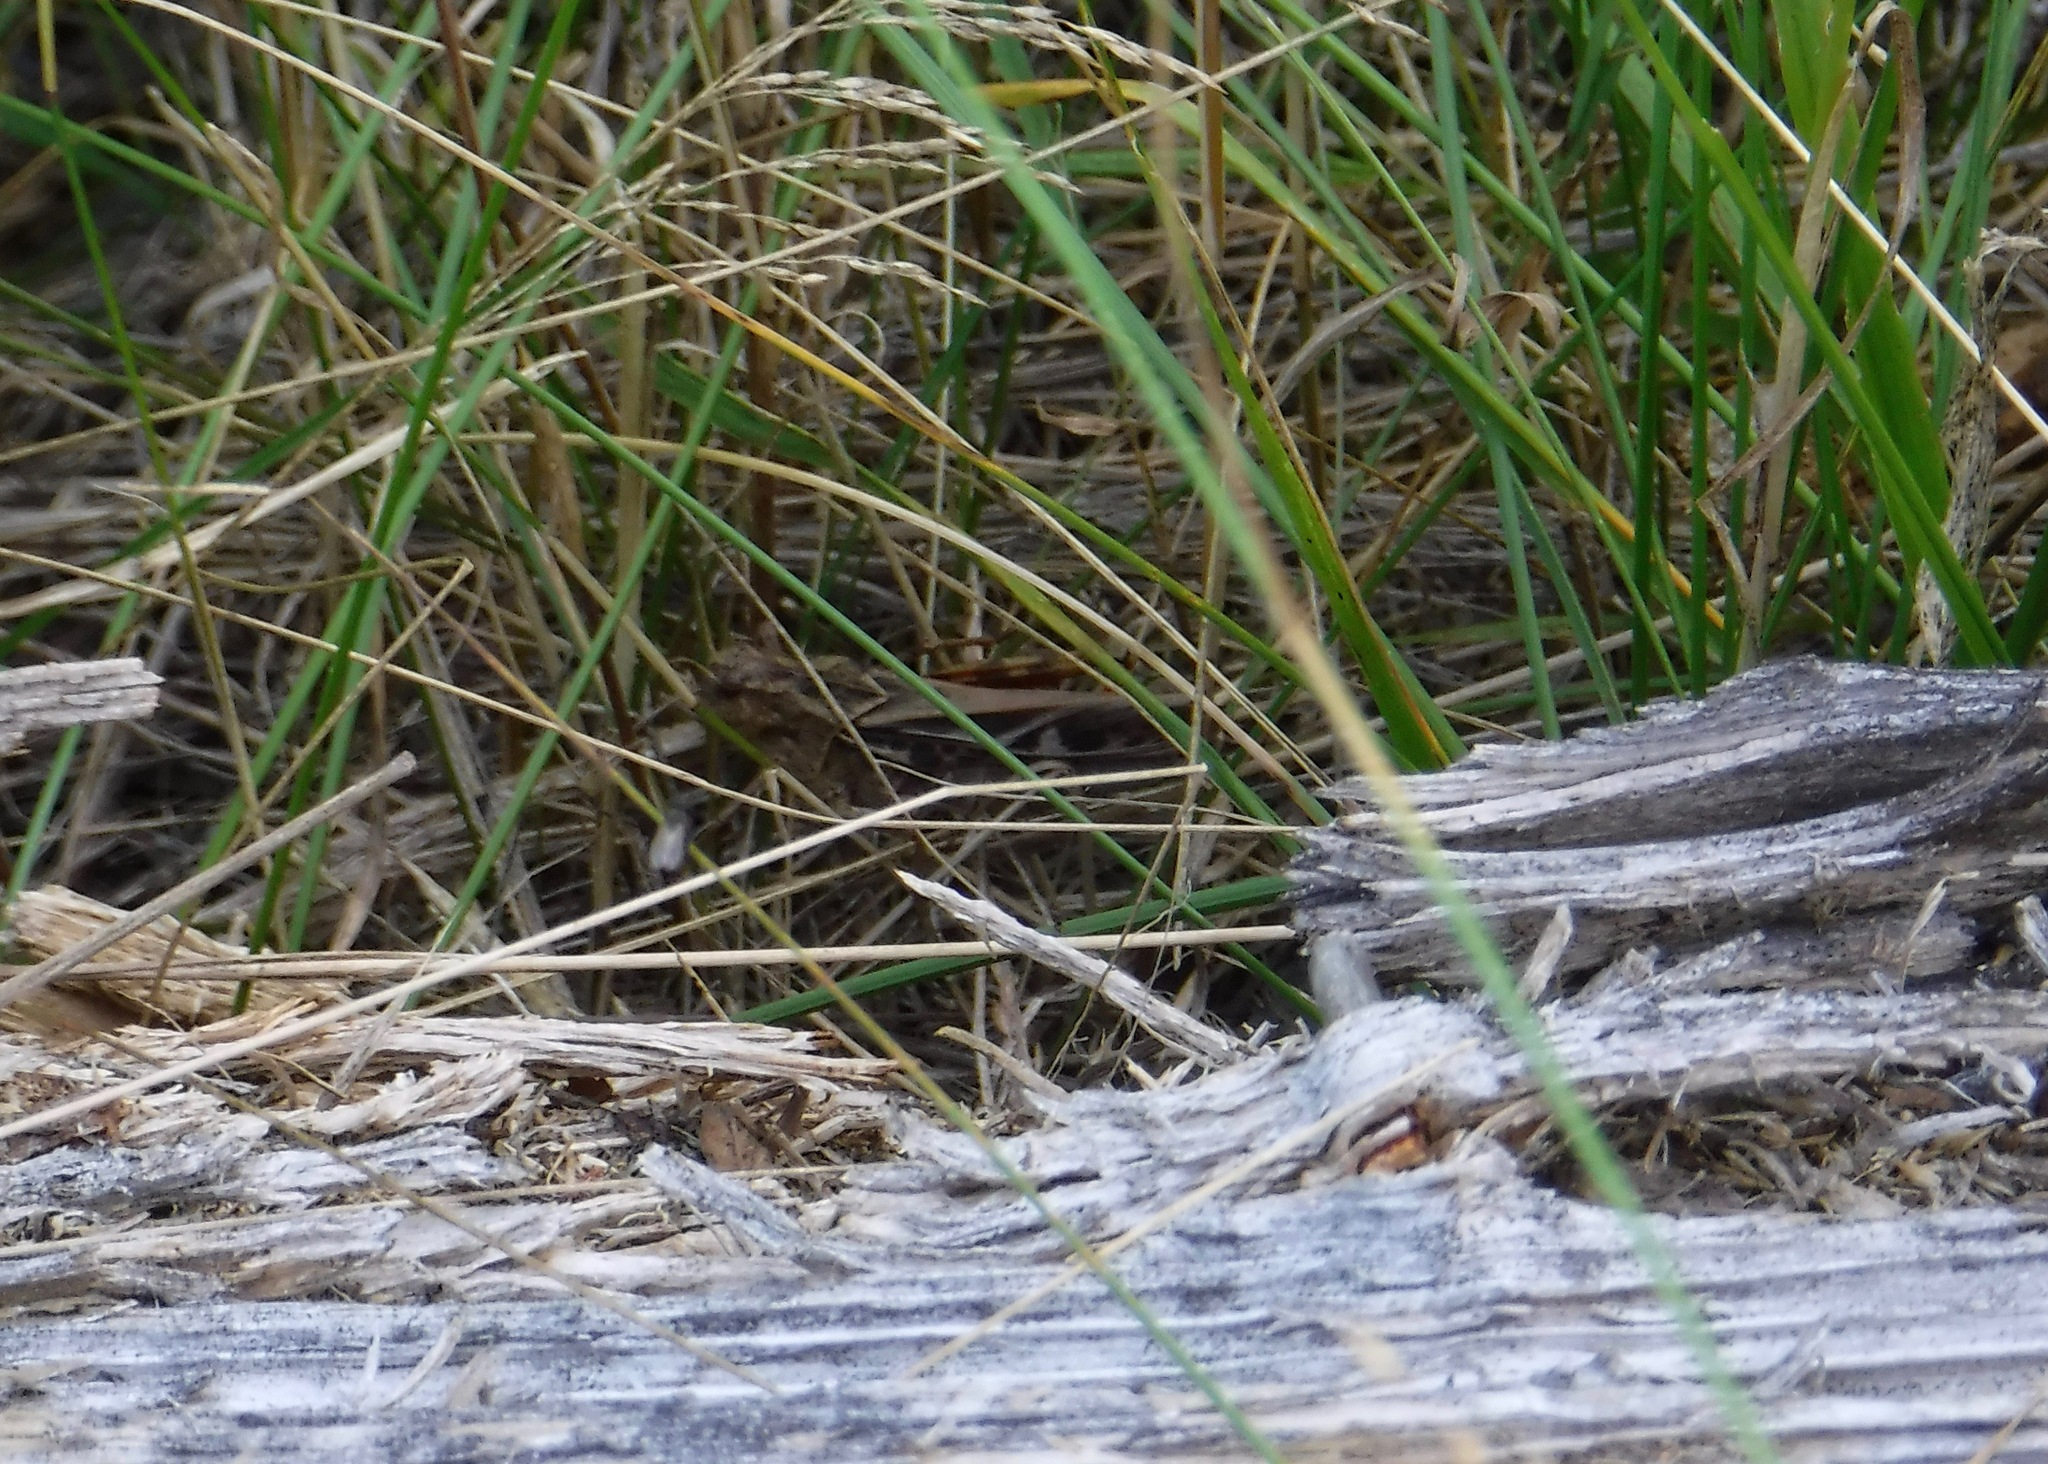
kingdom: Animalia
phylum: Arthropoda
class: Insecta
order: Orthoptera
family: Acrididae
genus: Pardalophora
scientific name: Pardalophora apiculata
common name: Coral-winged locust
